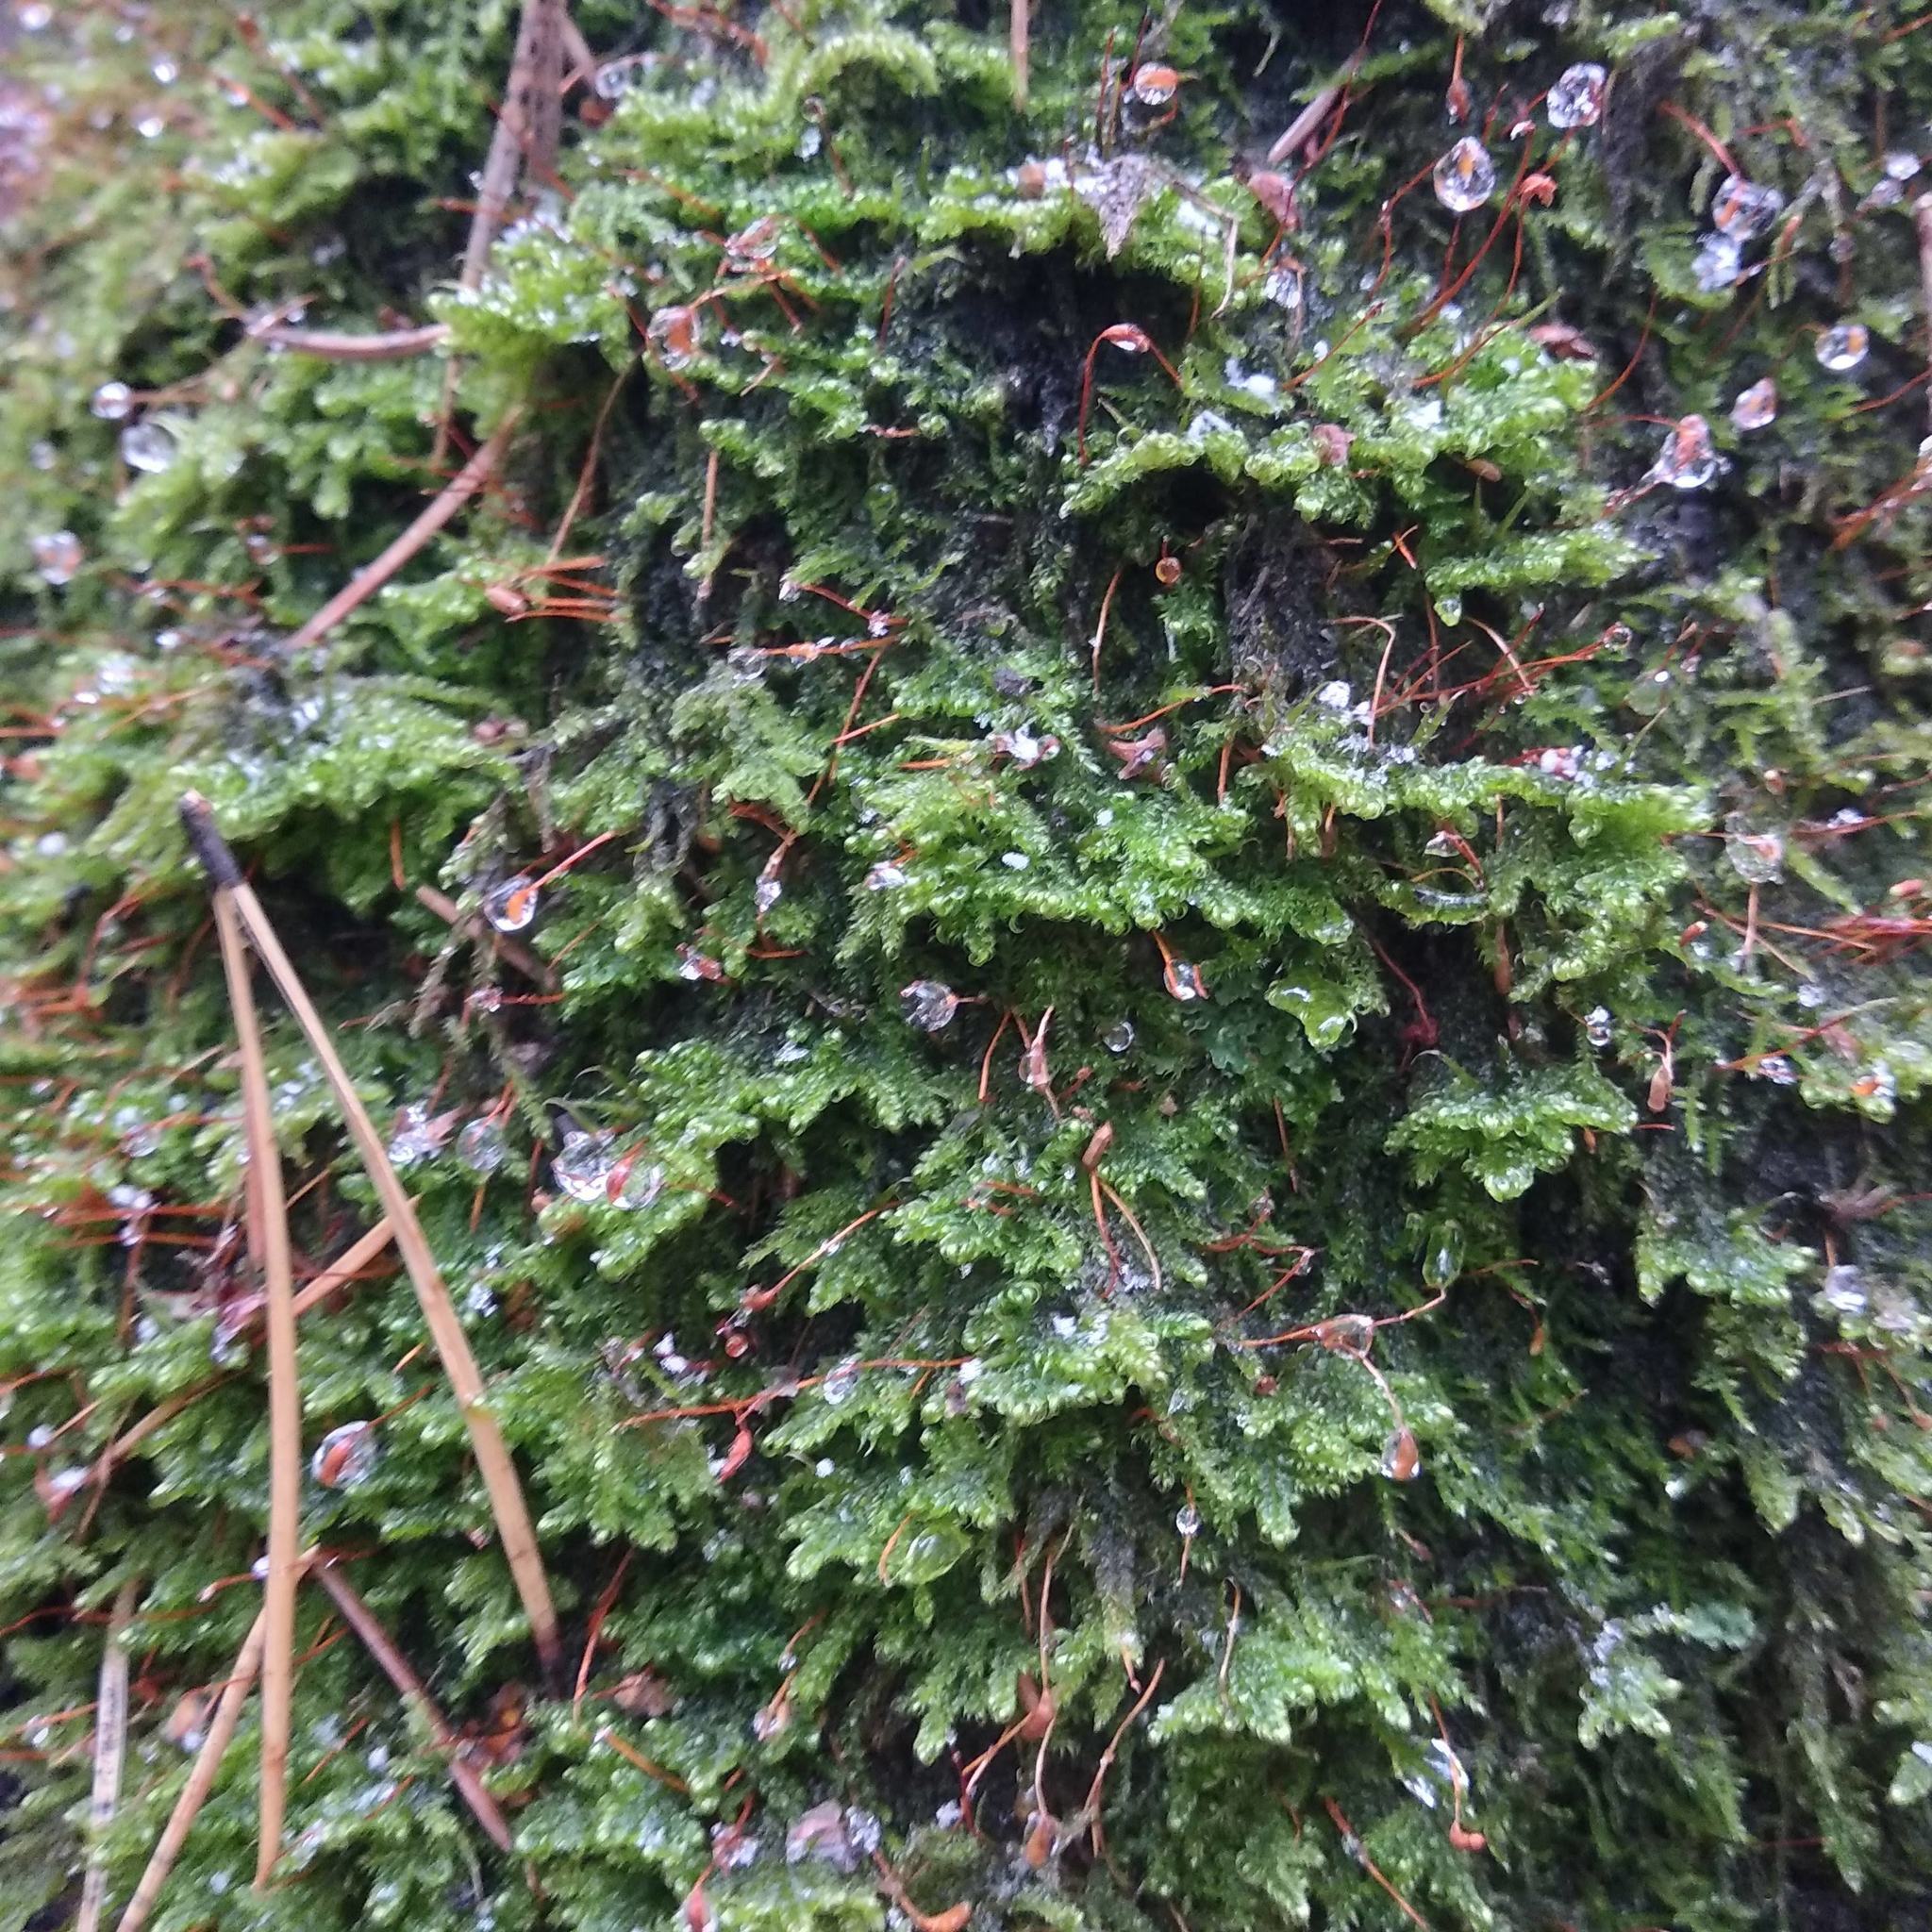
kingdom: Plantae
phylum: Bryophyta
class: Bryopsida
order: Hypnales
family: Scorpidiaceae
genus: Sanionia
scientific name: Sanionia uncinata
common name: Sickle moss
